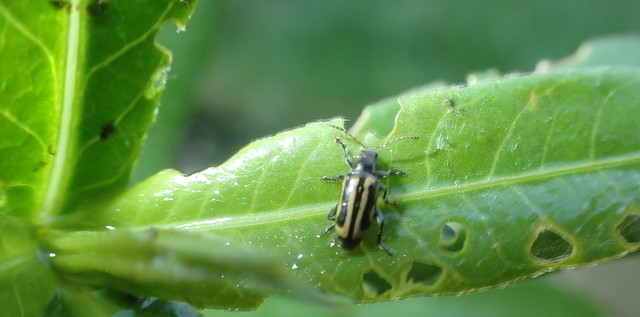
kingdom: Animalia
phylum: Arthropoda
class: Insecta
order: Coleoptera
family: Chrysomelidae
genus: Agasicles
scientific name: Agasicles hygrophila
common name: Alligatorweed flea beetle
